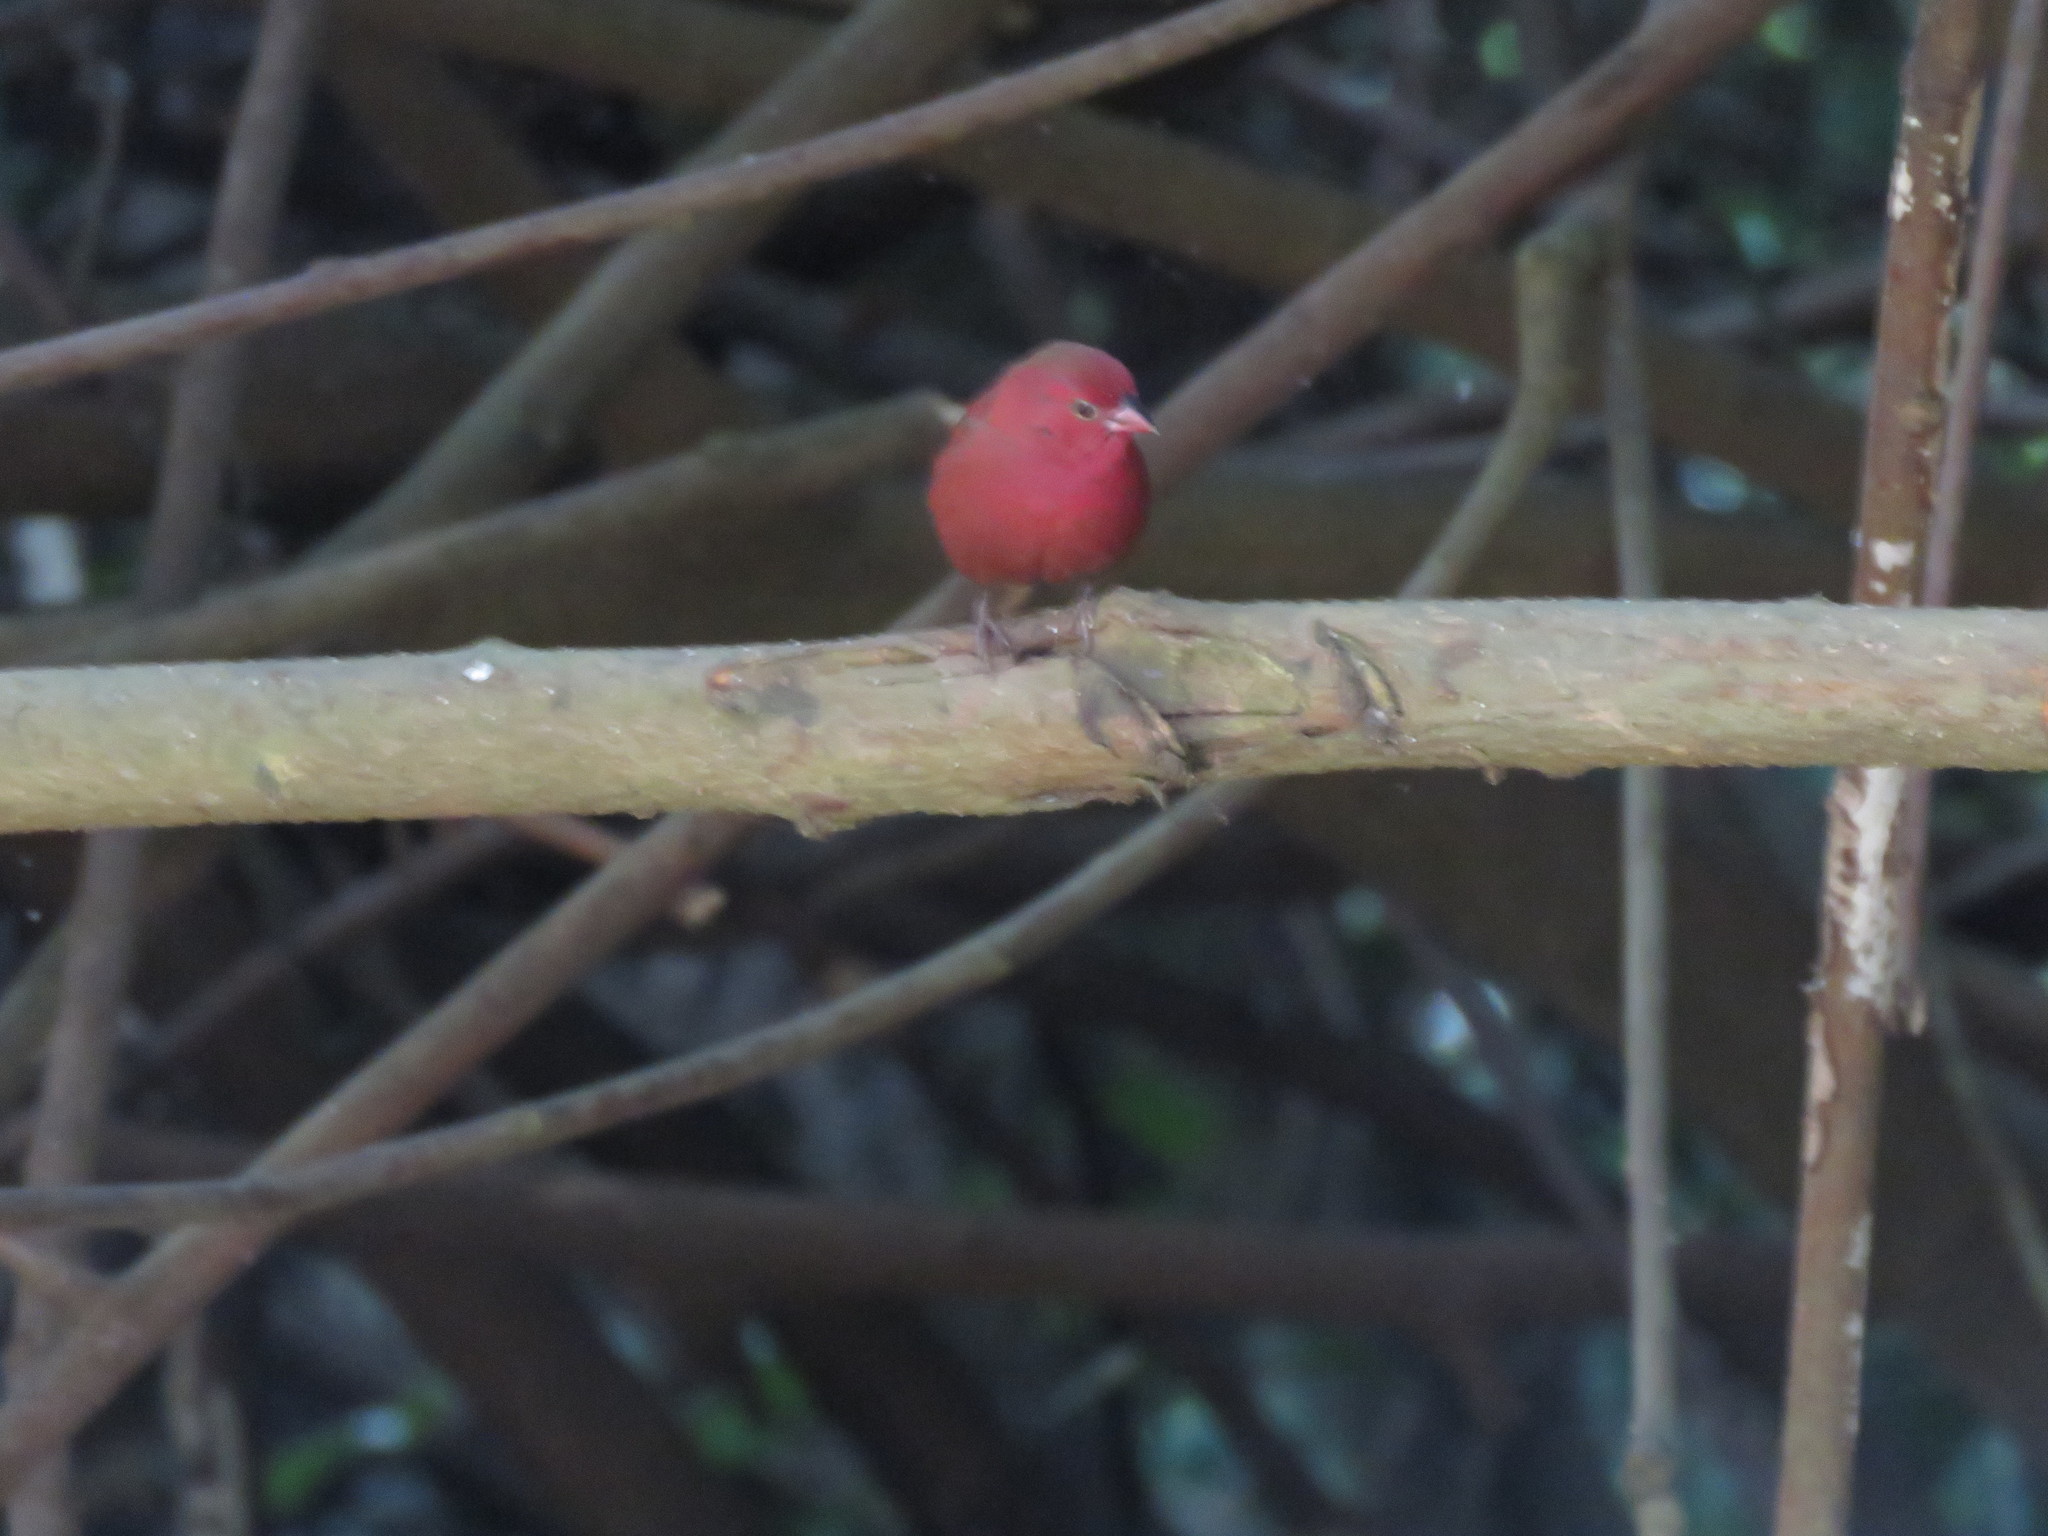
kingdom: Animalia
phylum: Chordata
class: Aves
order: Passeriformes
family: Estrildidae
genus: Lagonosticta
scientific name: Lagonosticta senegala
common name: Red-billed firefinch
